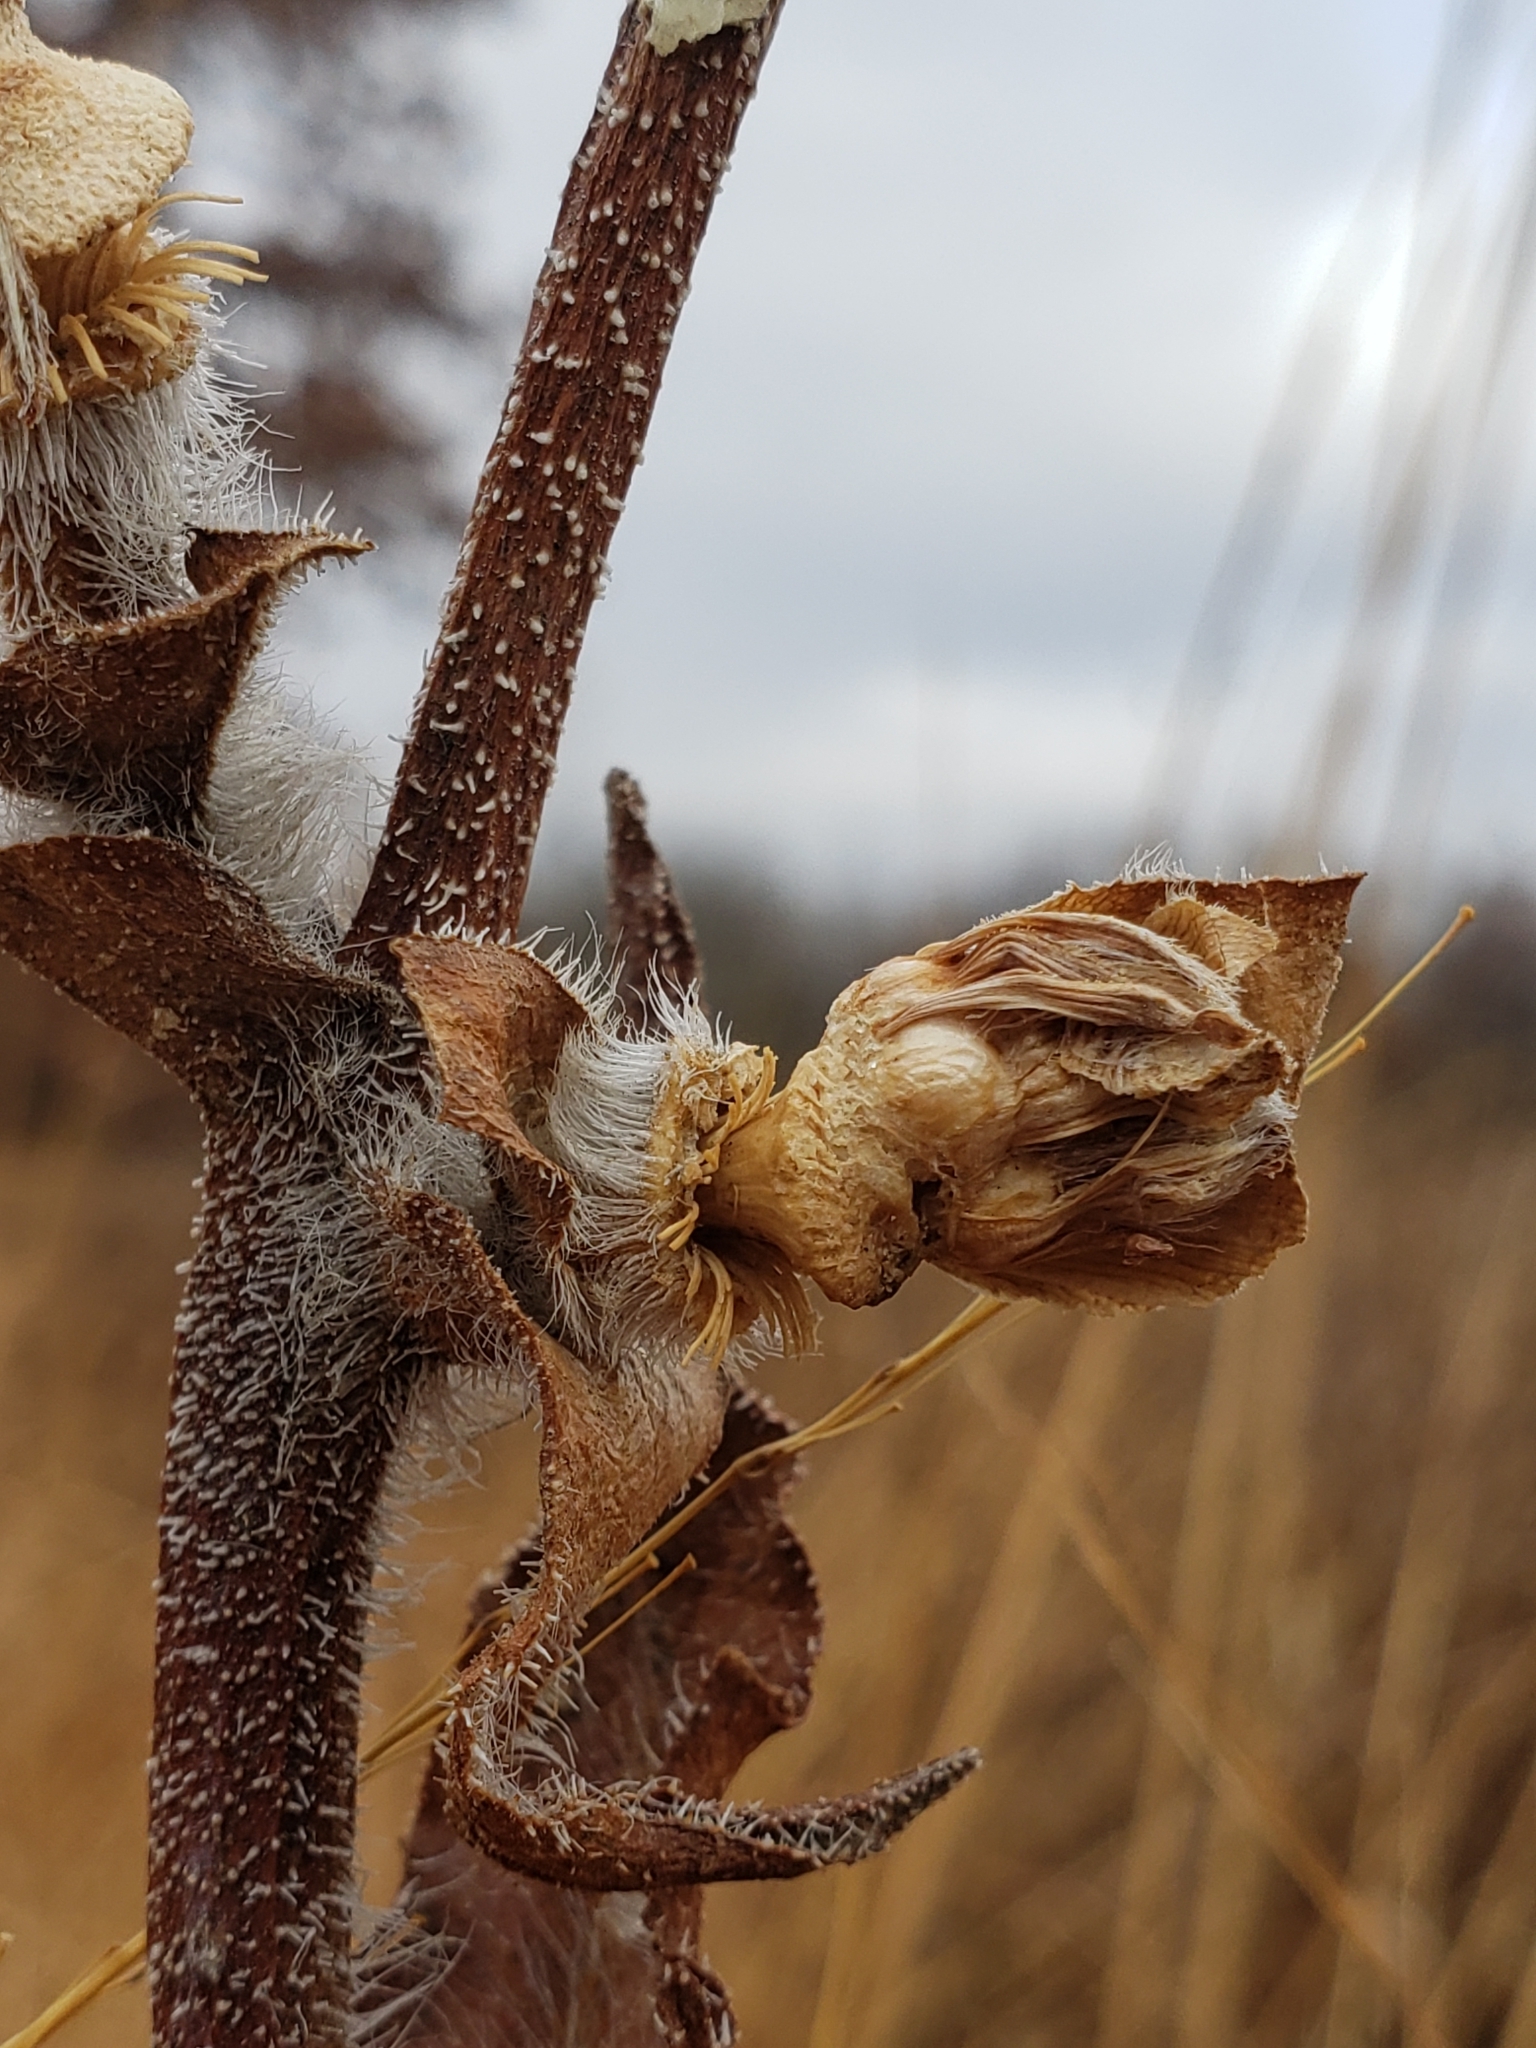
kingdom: Animalia
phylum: Arthropoda
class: Insecta
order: Hymenoptera
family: Cynipidae
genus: Antistrophus
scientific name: Antistrophus
